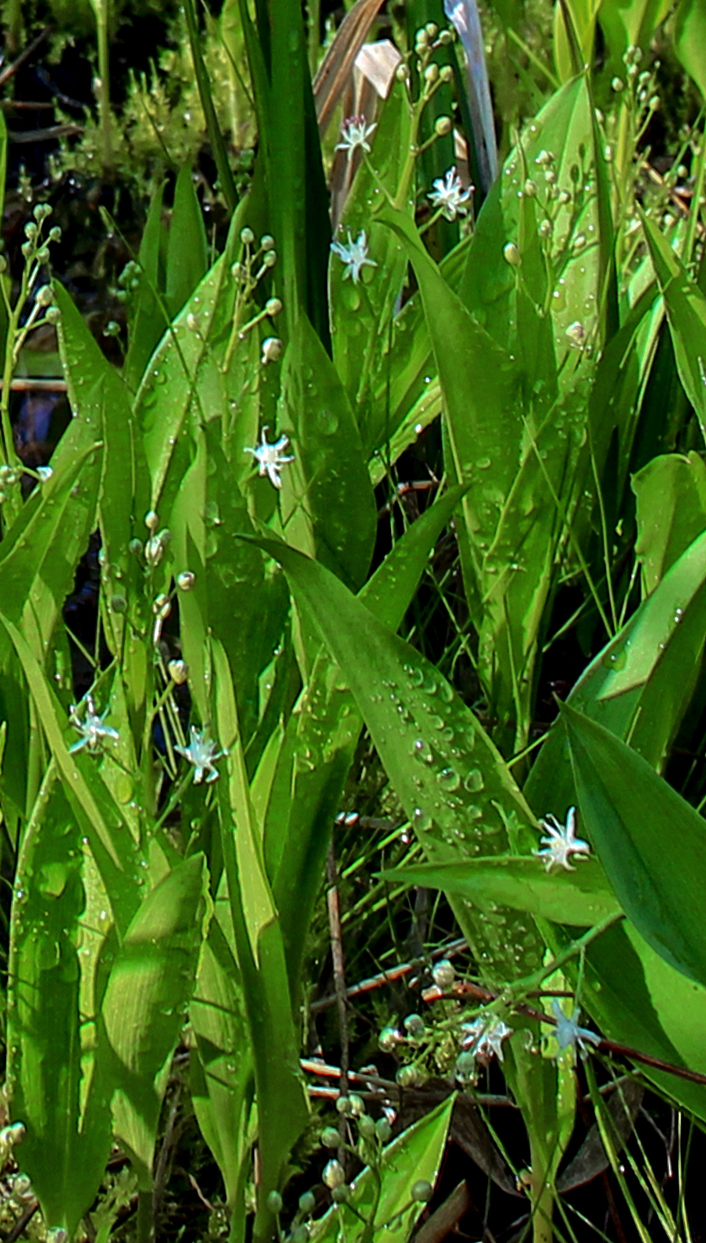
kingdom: Plantae
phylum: Tracheophyta
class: Liliopsida
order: Asparagales
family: Asparagaceae
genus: Maianthemum
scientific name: Maianthemum trifolium
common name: Swamp false solomon's seal
